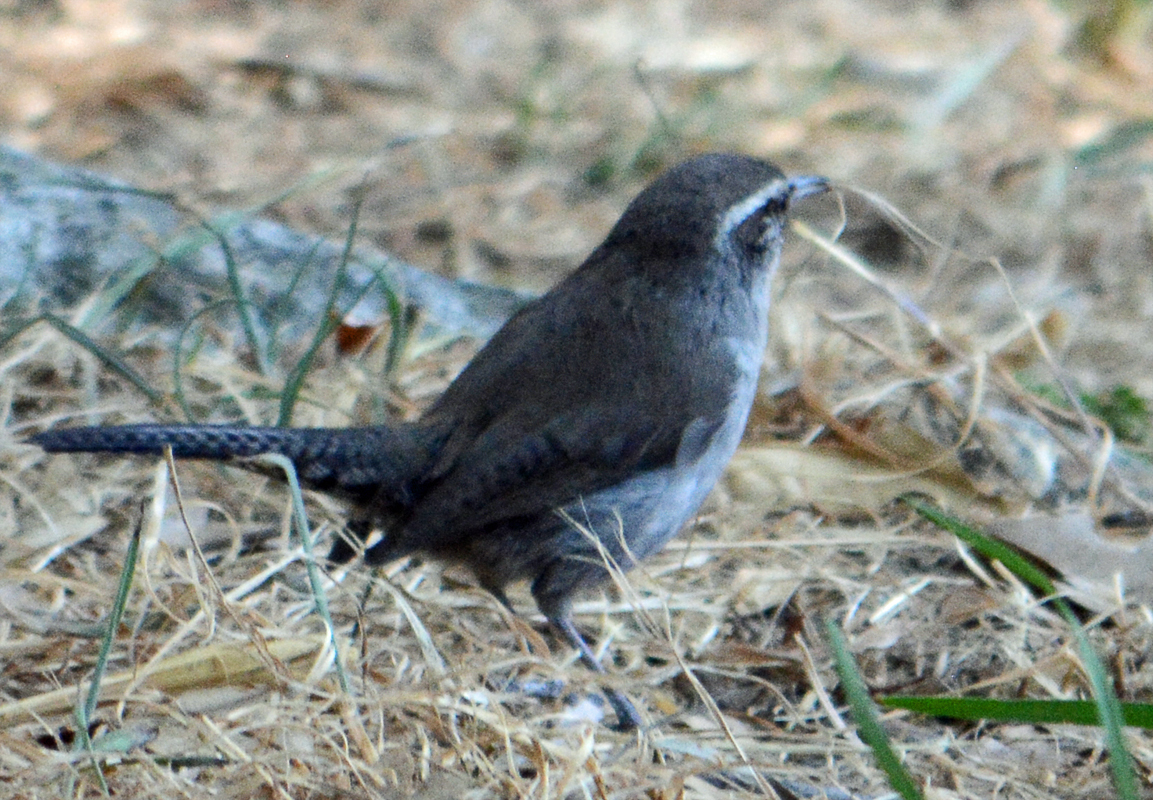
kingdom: Animalia
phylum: Chordata
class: Aves
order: Passeriformes
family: Troglodytidae
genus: Thryomanes
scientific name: Thryomanes bewickii
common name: Bewick's wren
